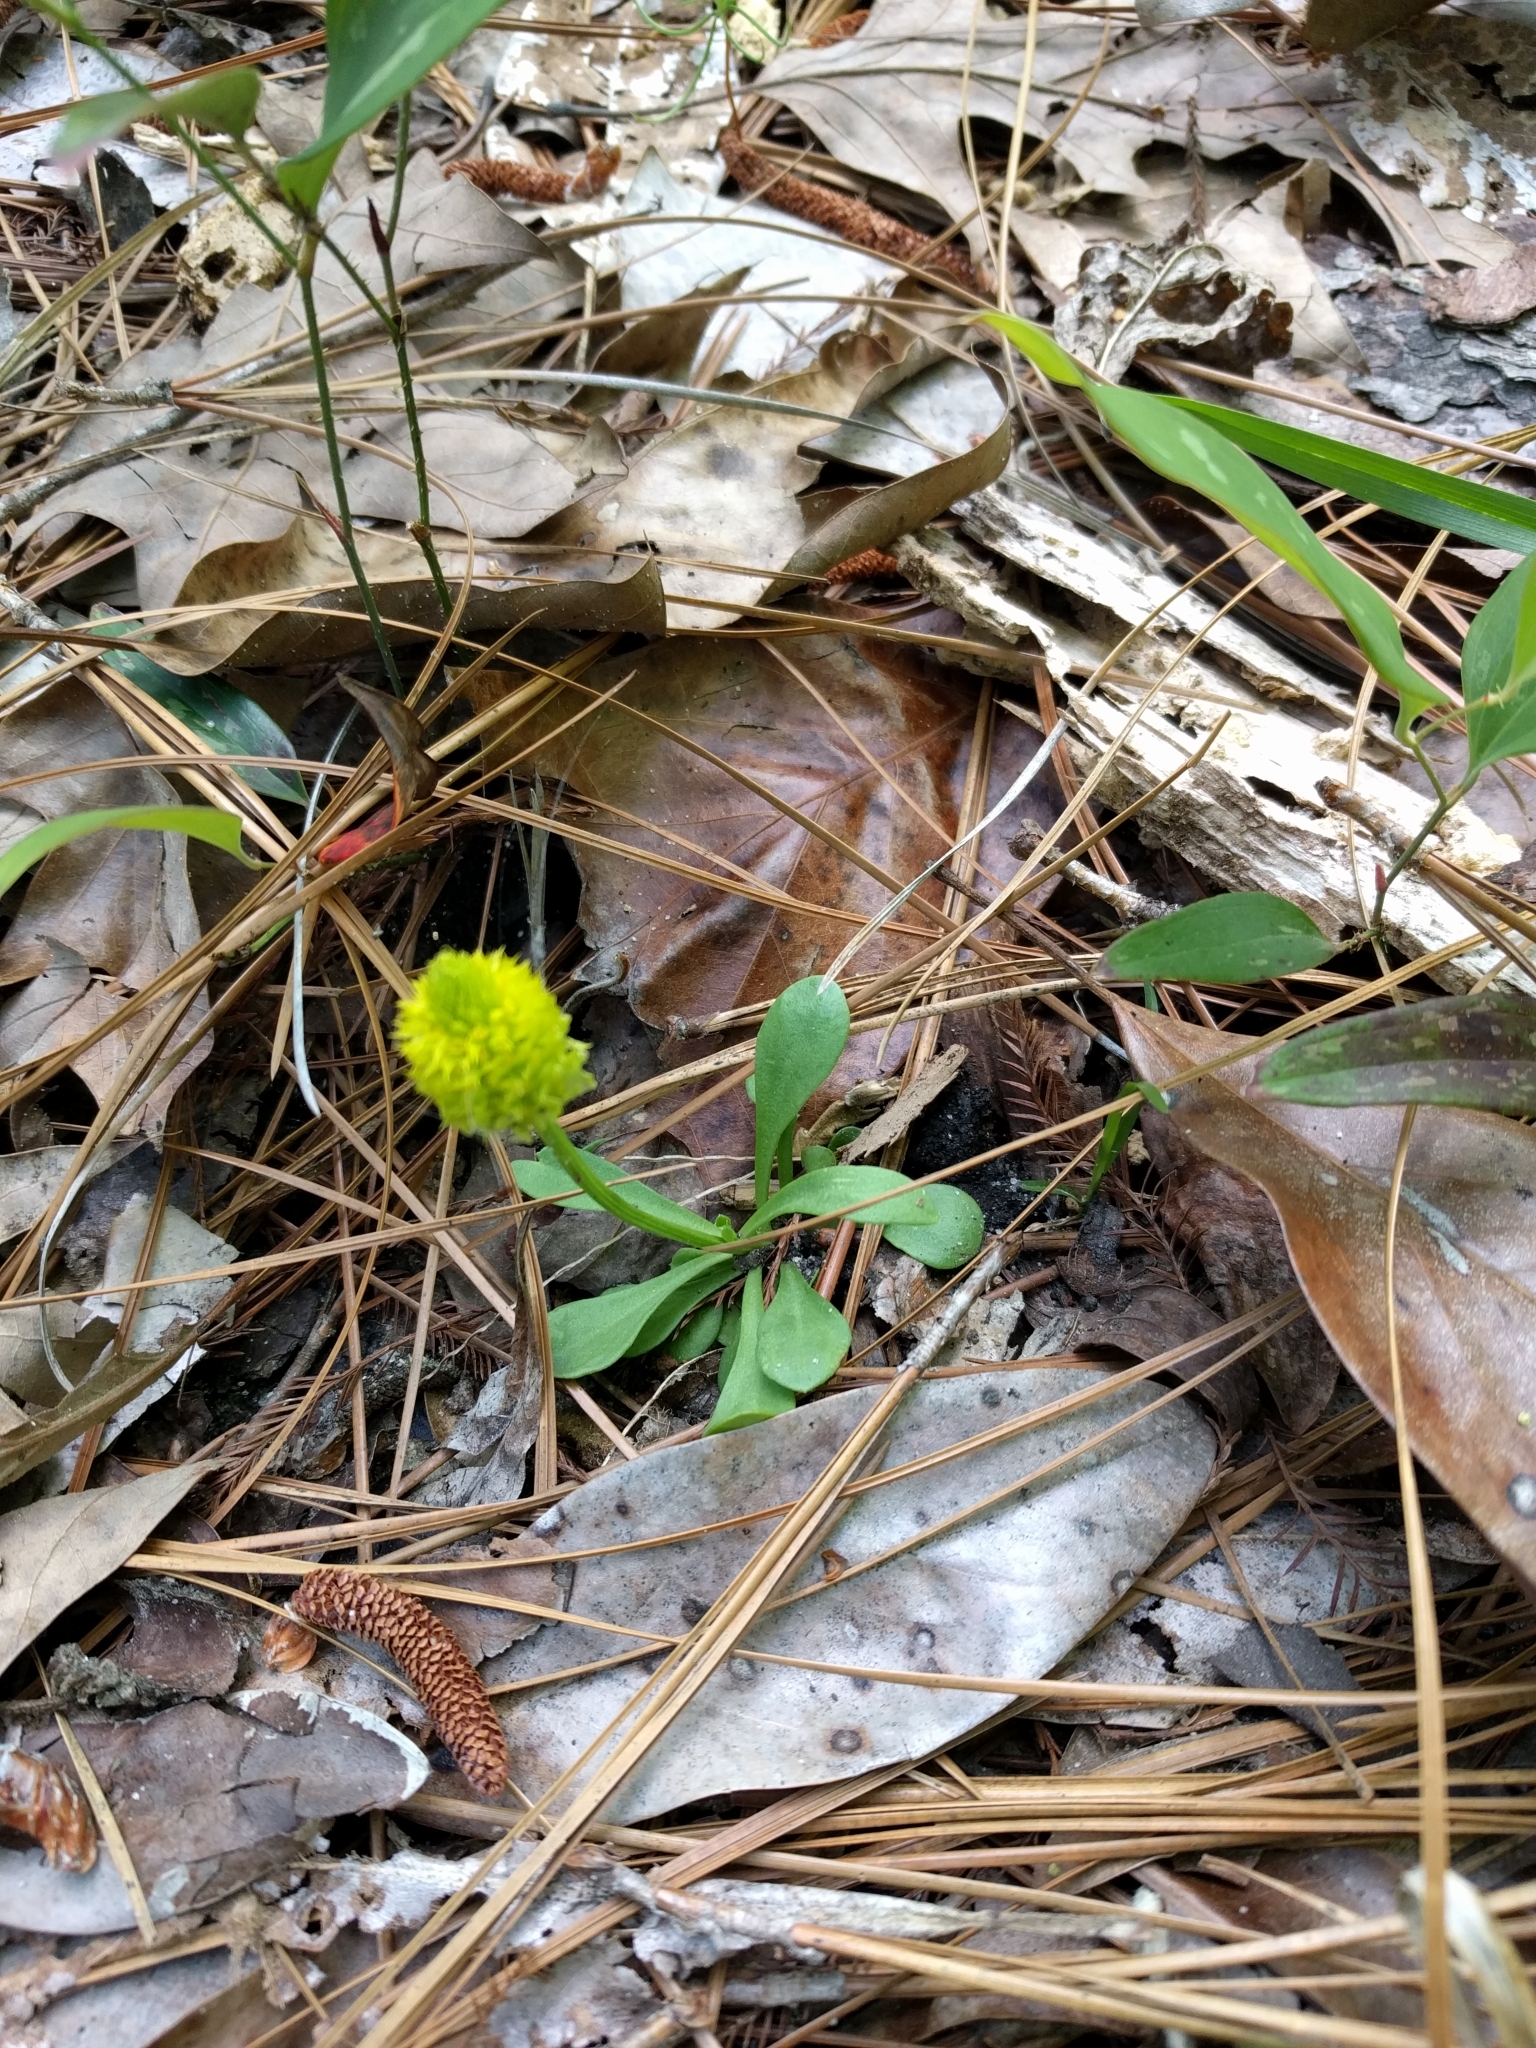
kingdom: Plantae
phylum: Tracheophyta
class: Magnoliopsida
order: Fabales
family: Polygalaceae
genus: Polygala
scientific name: Polygala nana
